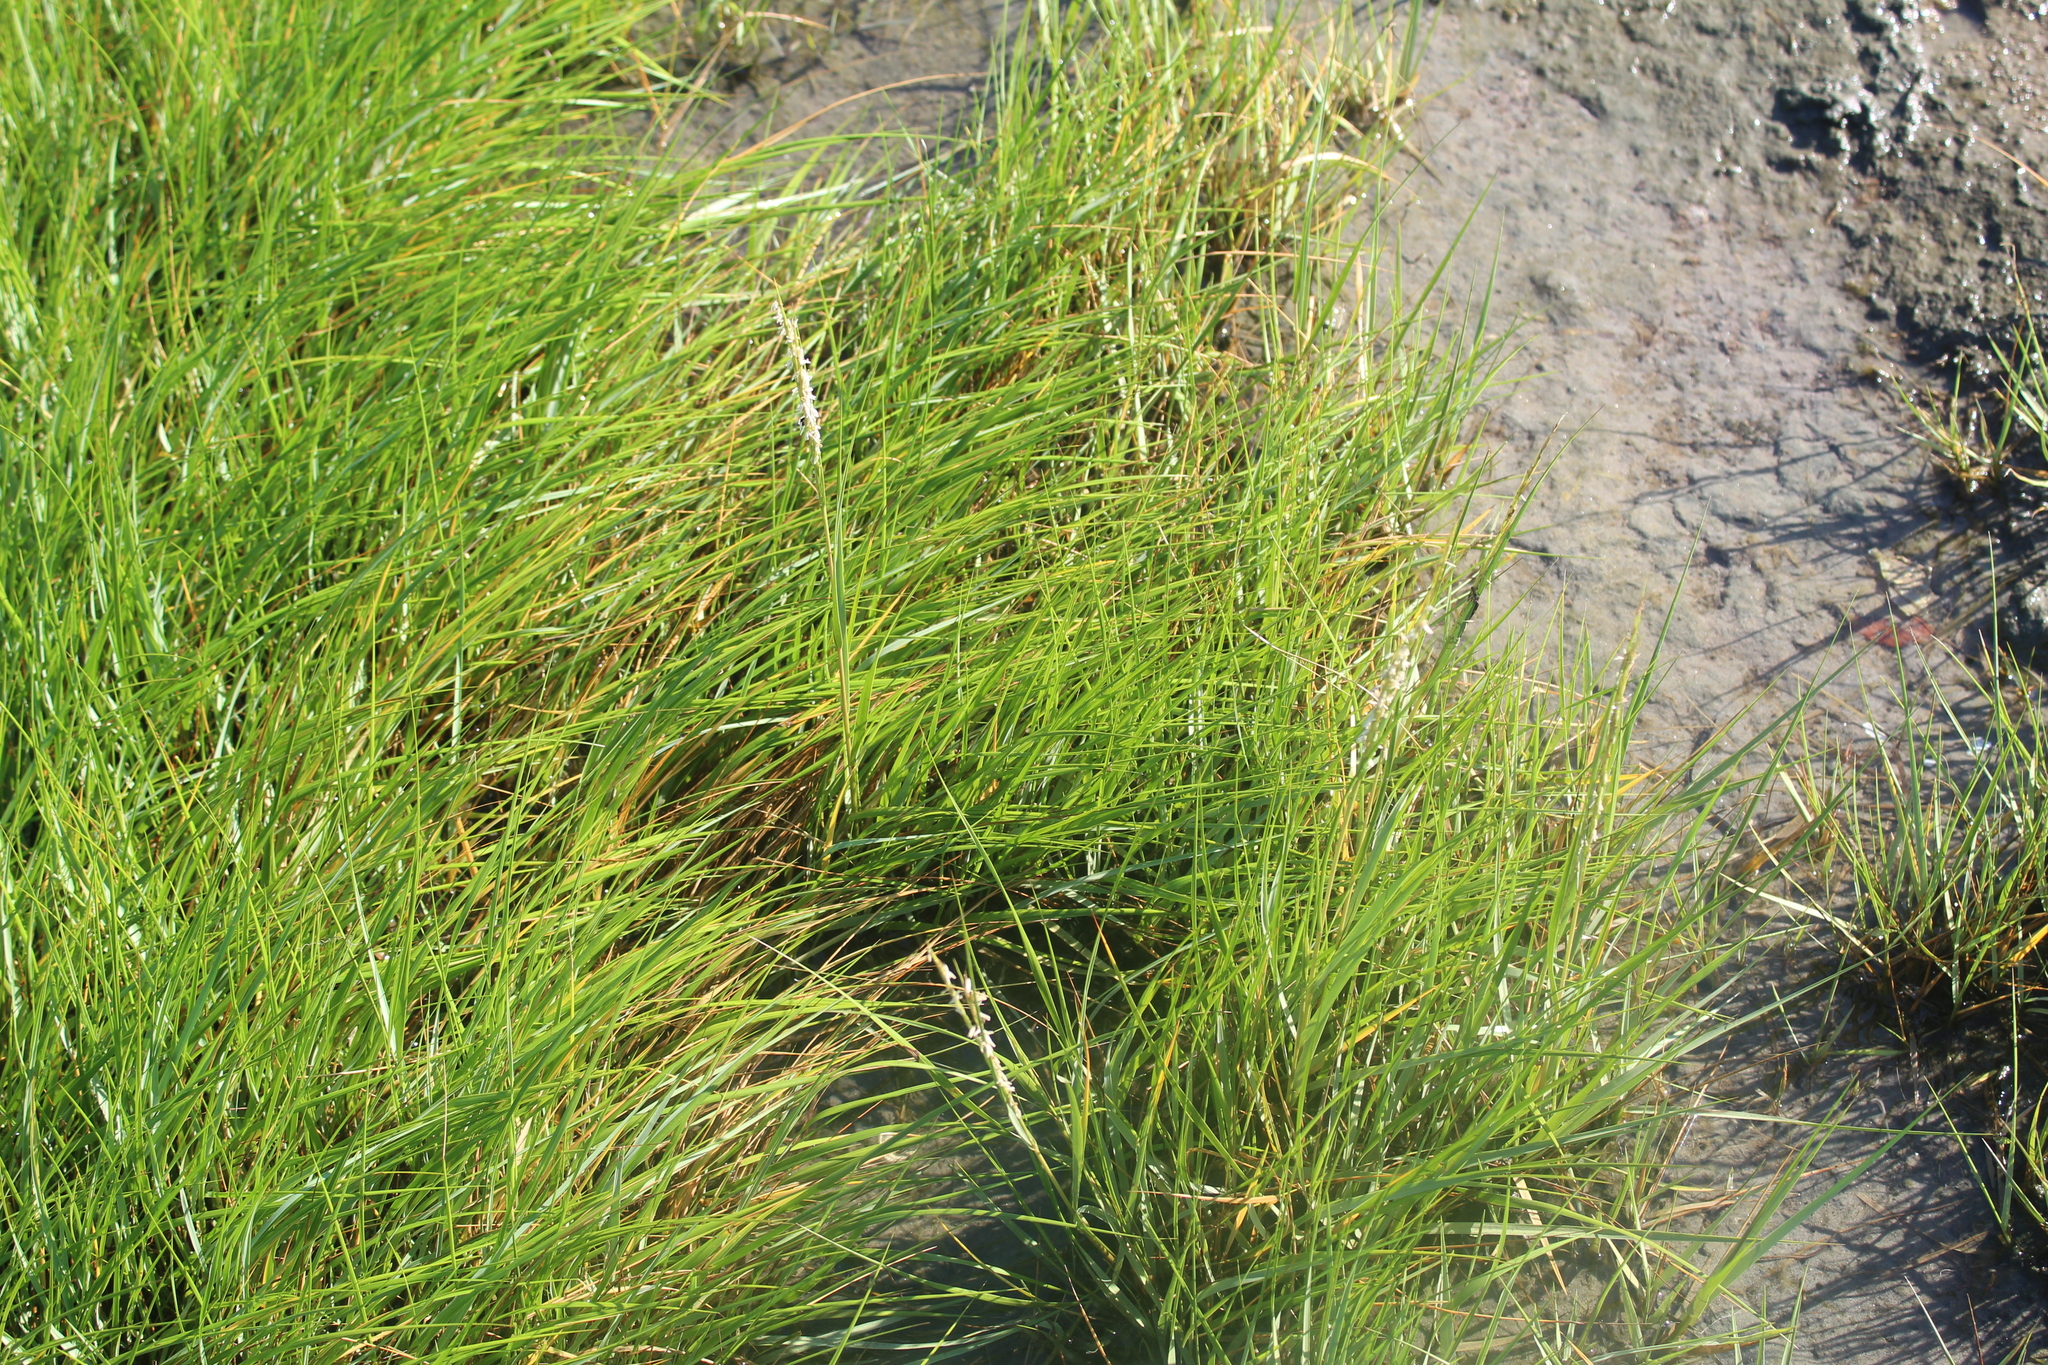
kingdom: Plantae
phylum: Tracheophyta
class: Liliopsida
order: Poales
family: Poaceae
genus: Sporobolus
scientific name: Sporobolus alterniflorus
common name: Atlantic cordgrass
